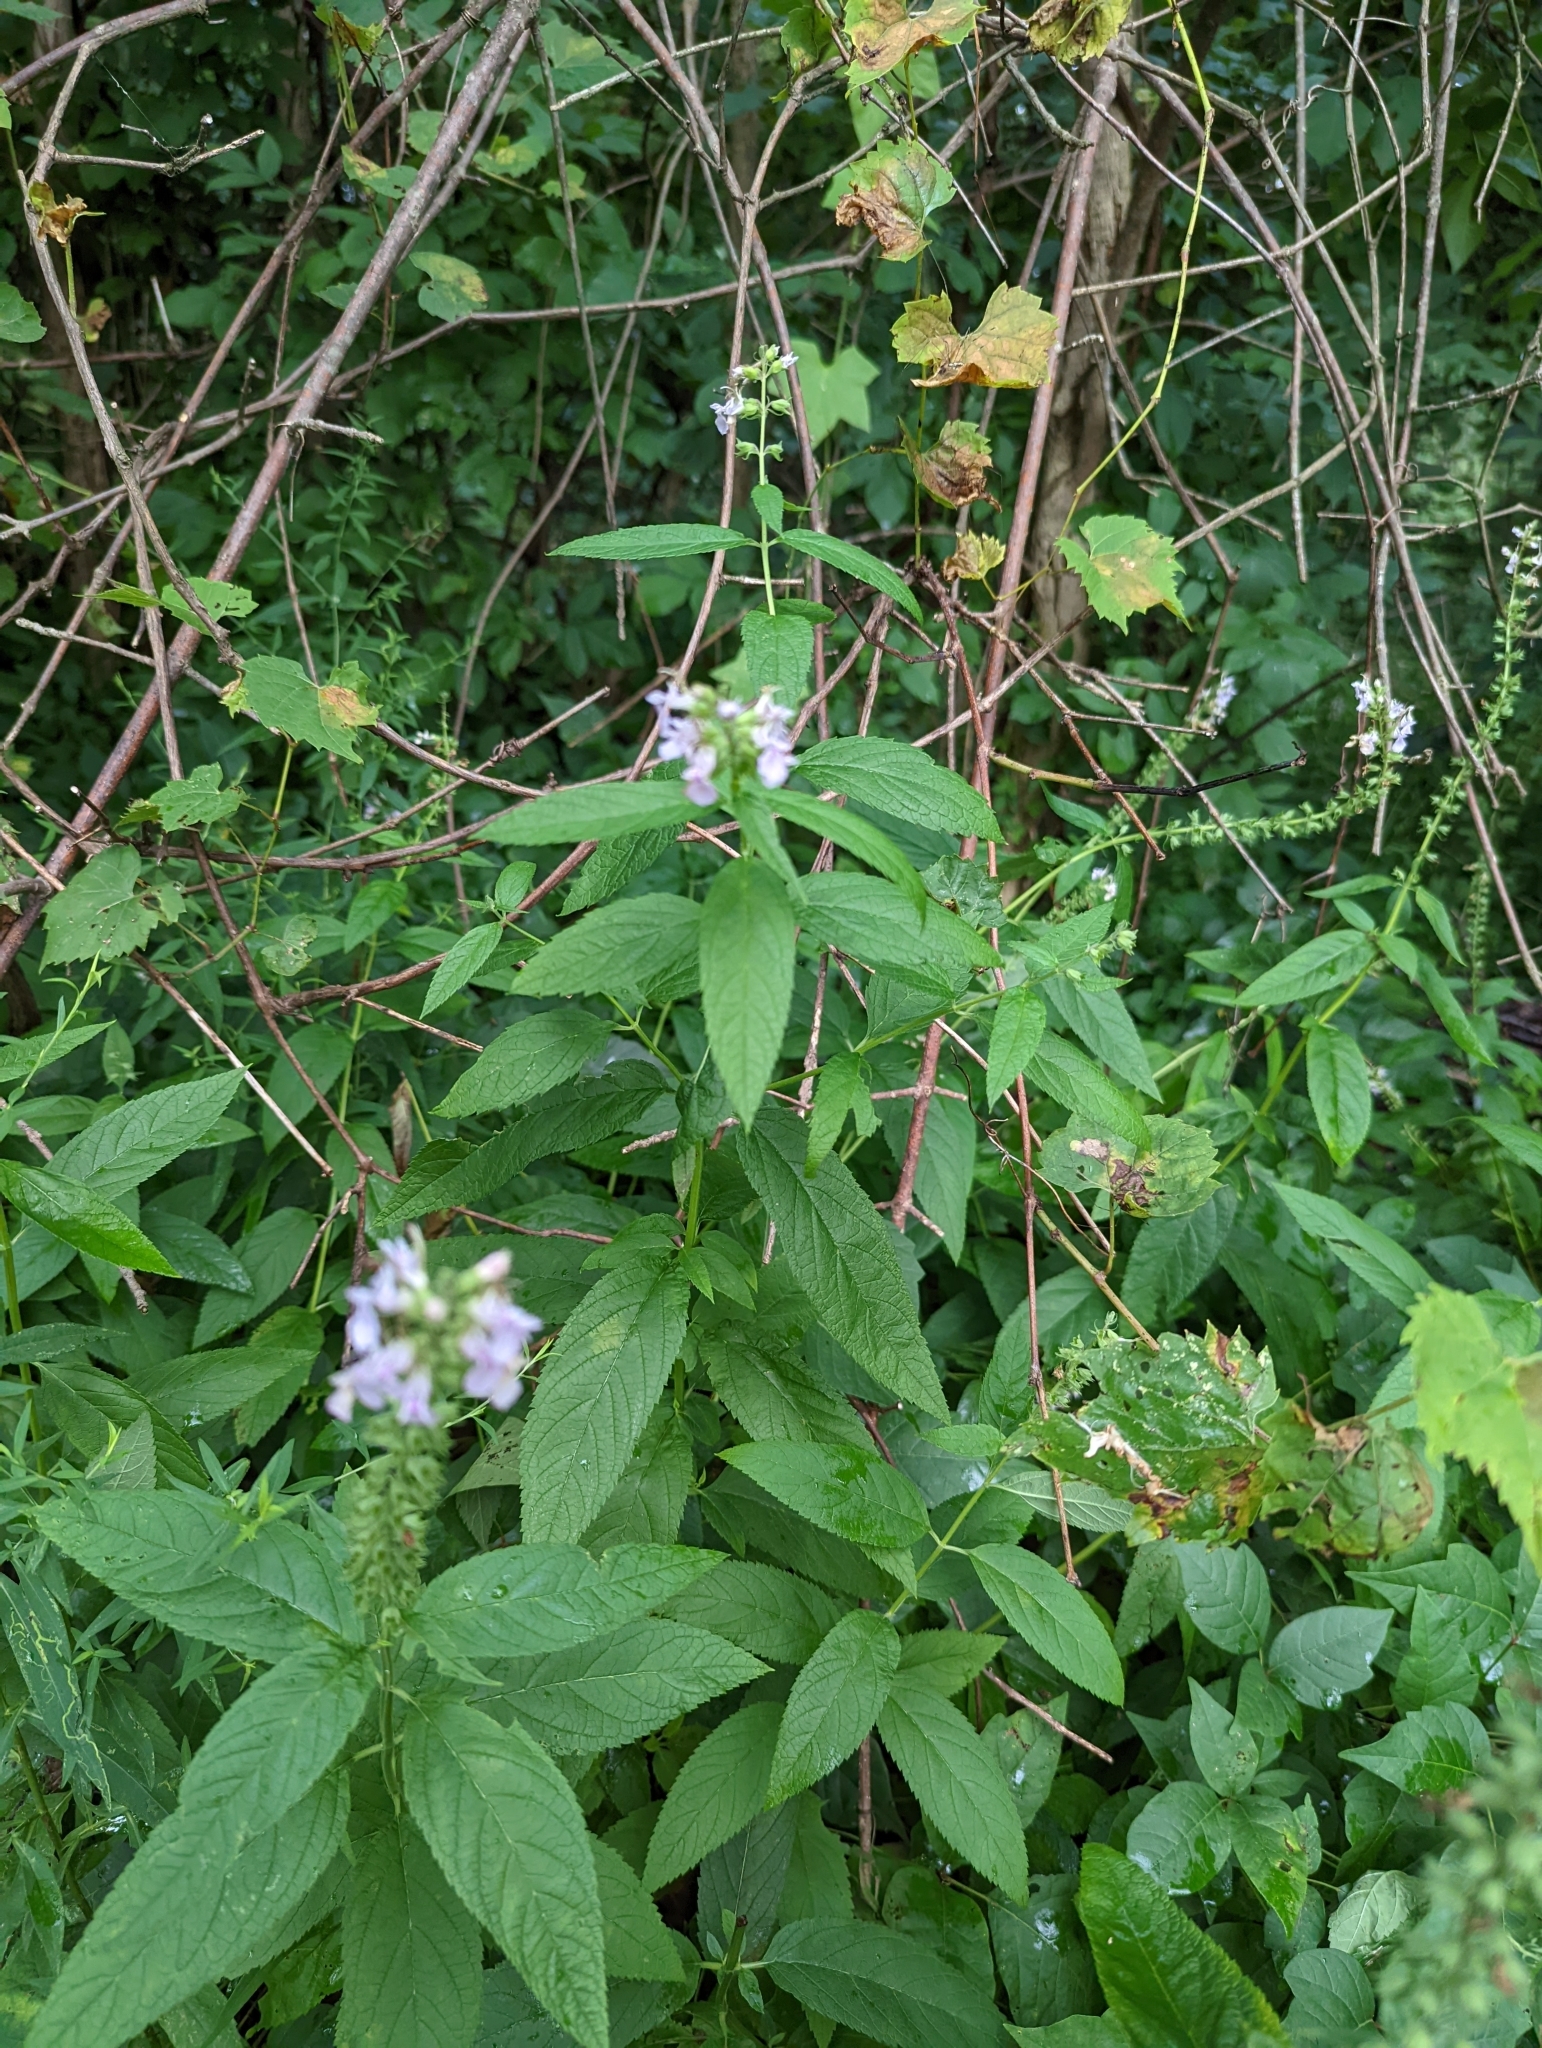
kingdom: Plantae
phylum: Tracheophyta
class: Magnoliopsida
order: Lamiales
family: Lamiaceae
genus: Teucrium
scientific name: Teucrium canadense
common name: American germander
